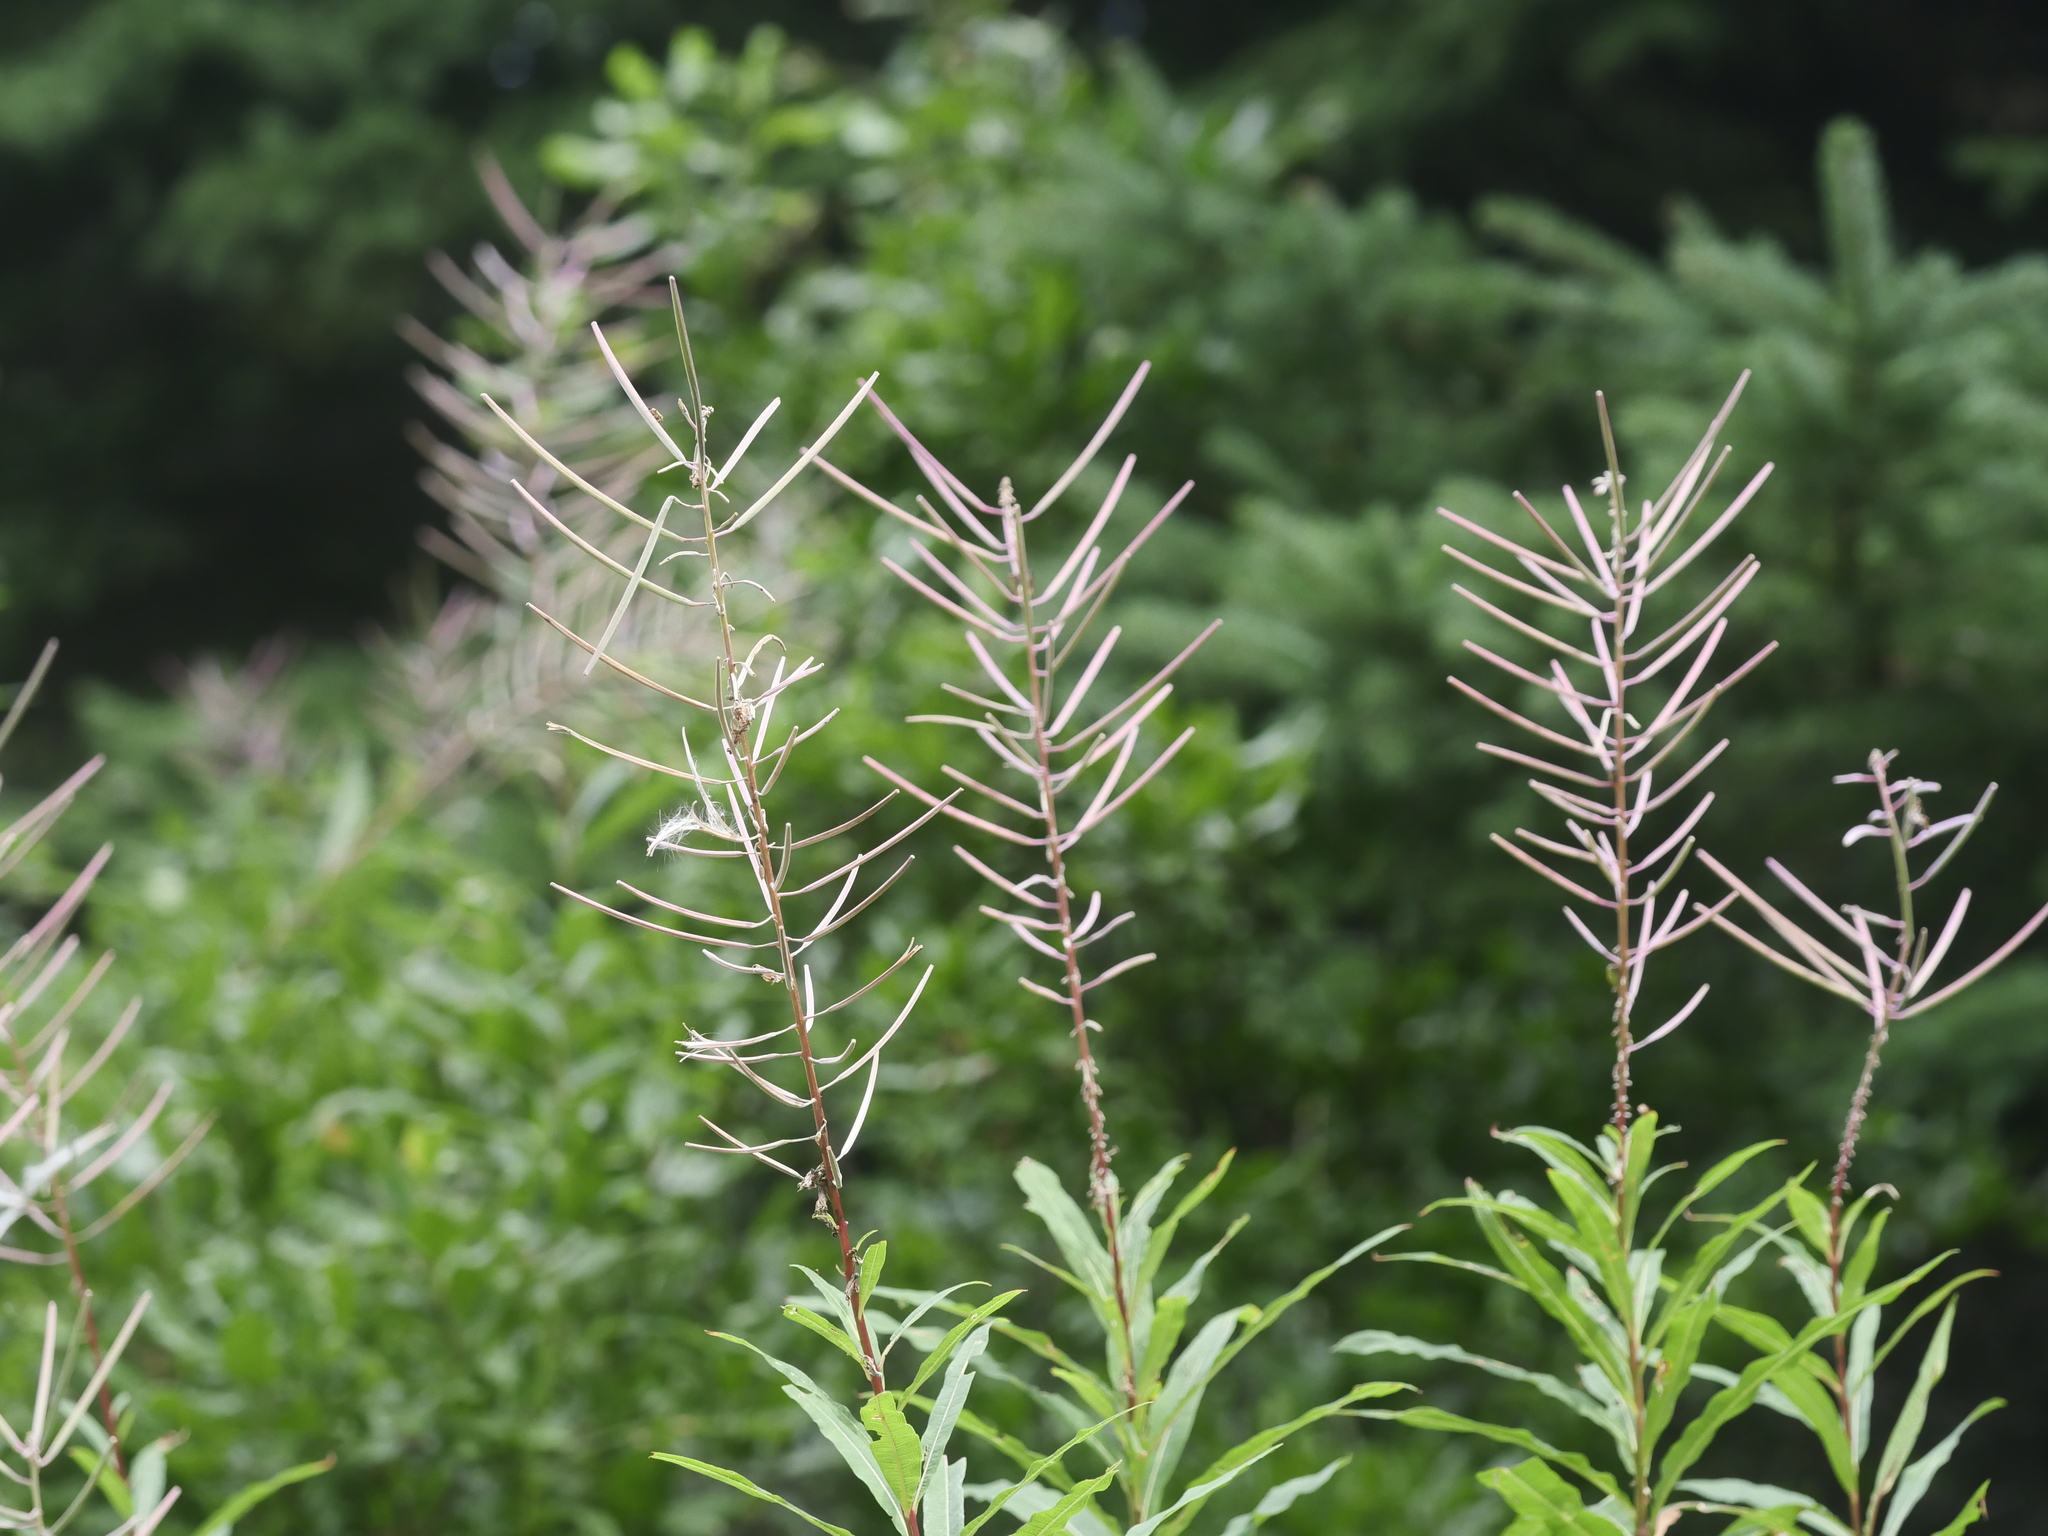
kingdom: Plantae
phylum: Tracheophyta
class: Magnoliopsida
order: Myrtales
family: Onagraceae
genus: Chamaenerion
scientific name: Chamaenerion angustifolium
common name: Fireweed
